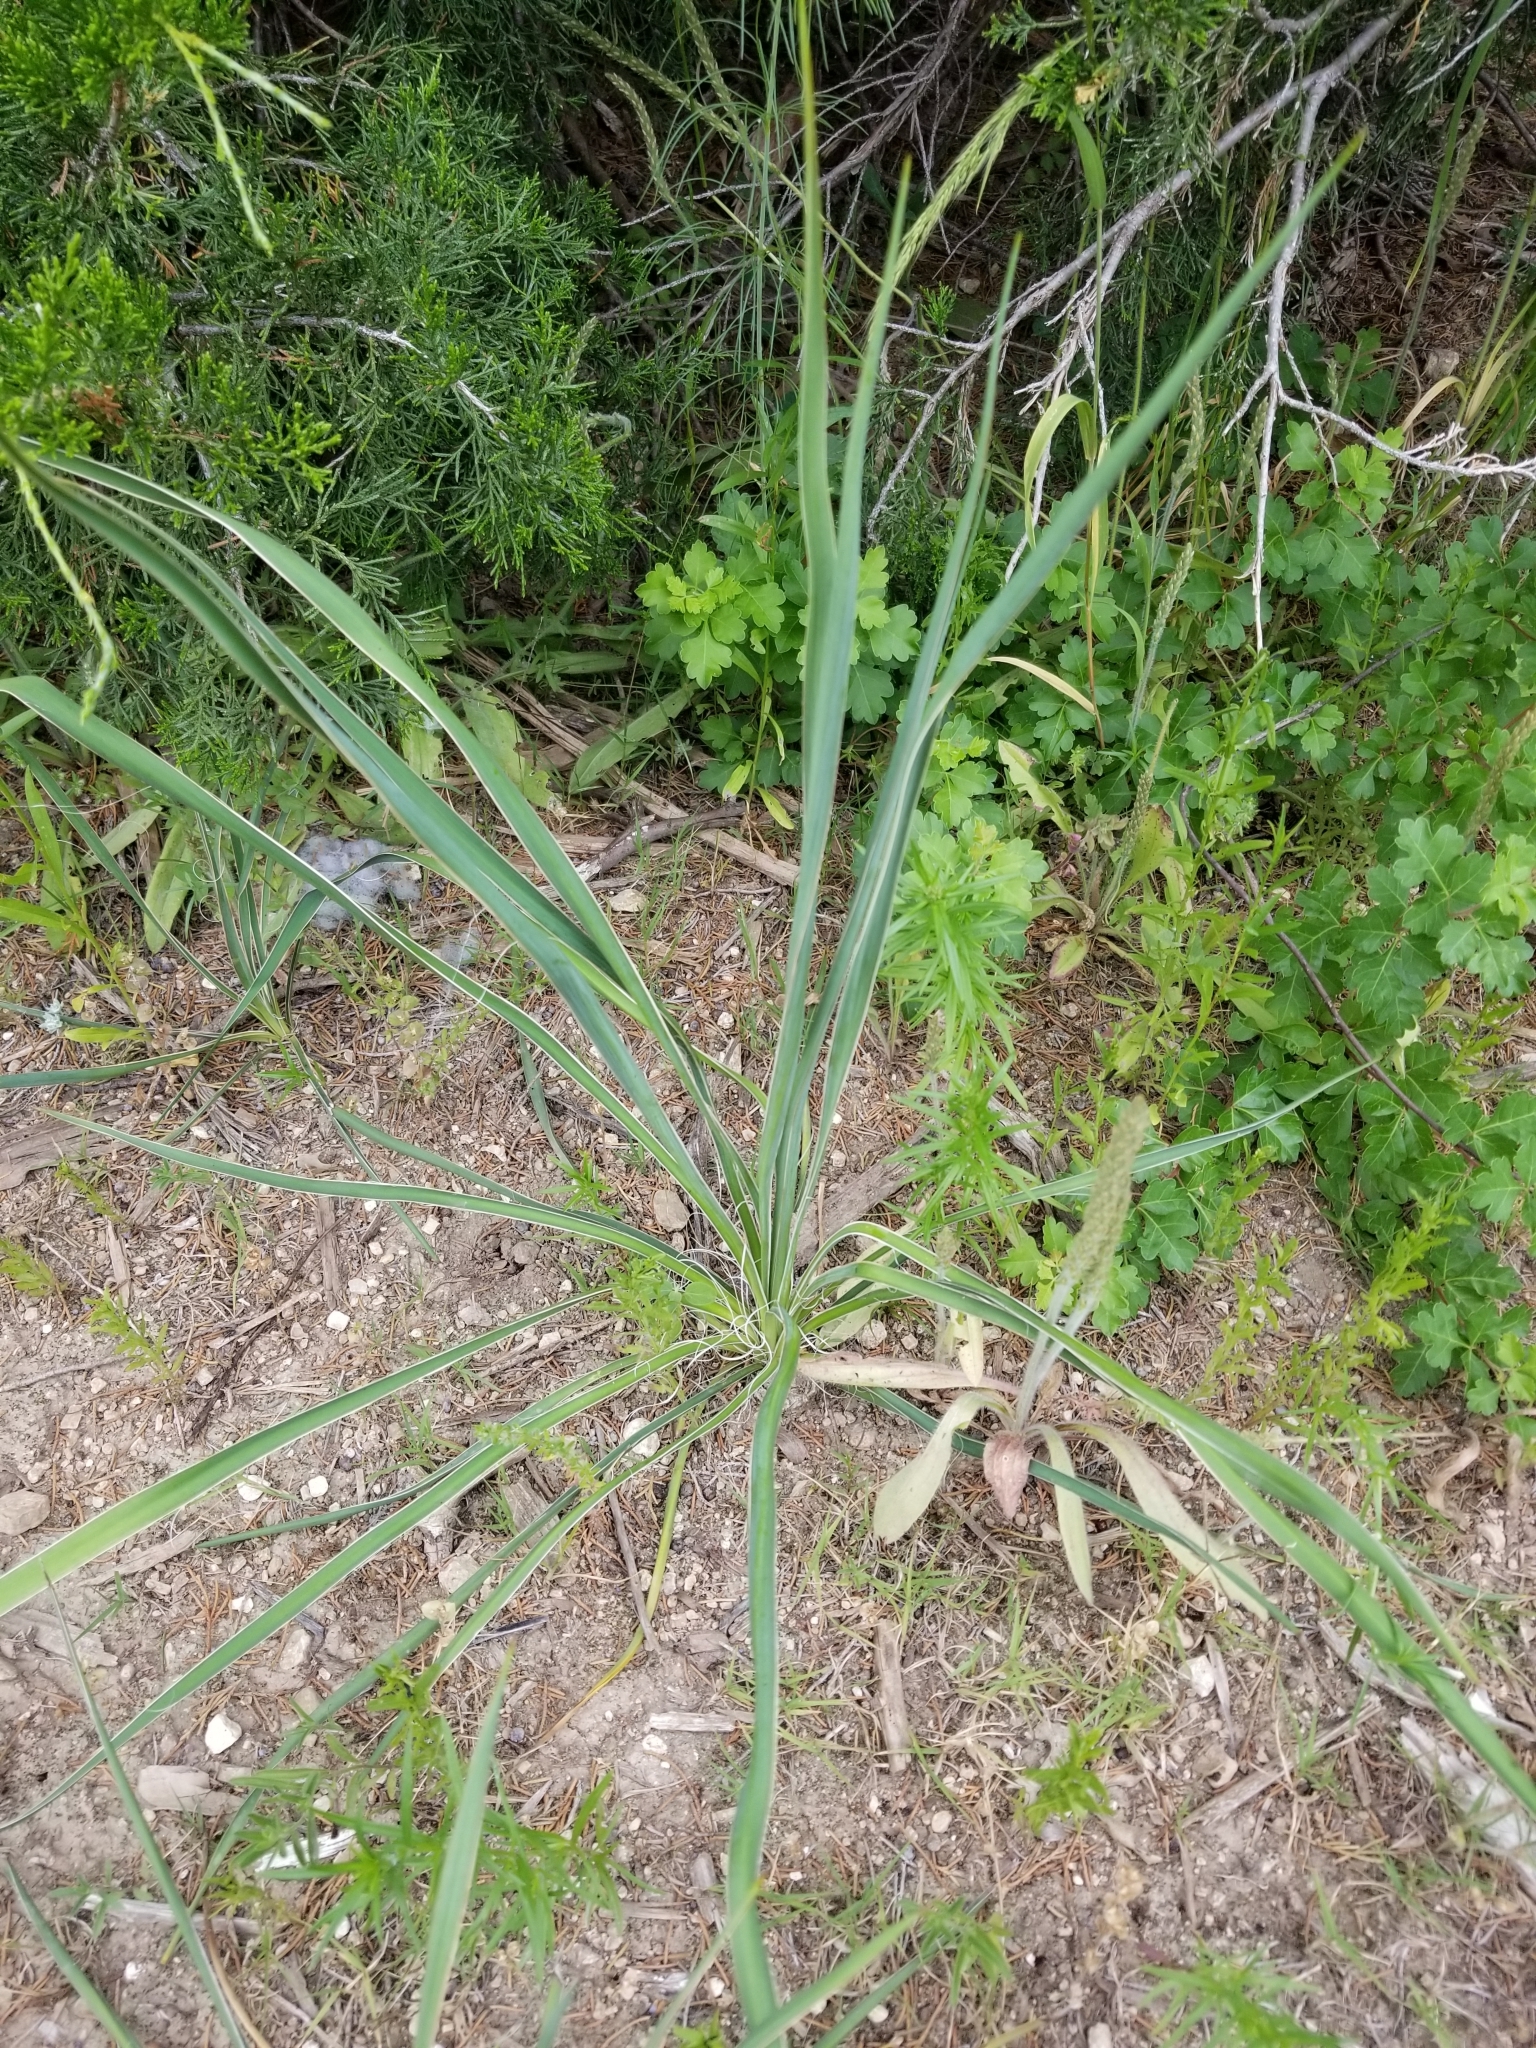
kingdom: Plantae
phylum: Tracheophyta
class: Liliopsida
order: Asparagales
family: Asparagaceae
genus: Yucca
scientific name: Yucca arkansana
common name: Arkansas yucca
